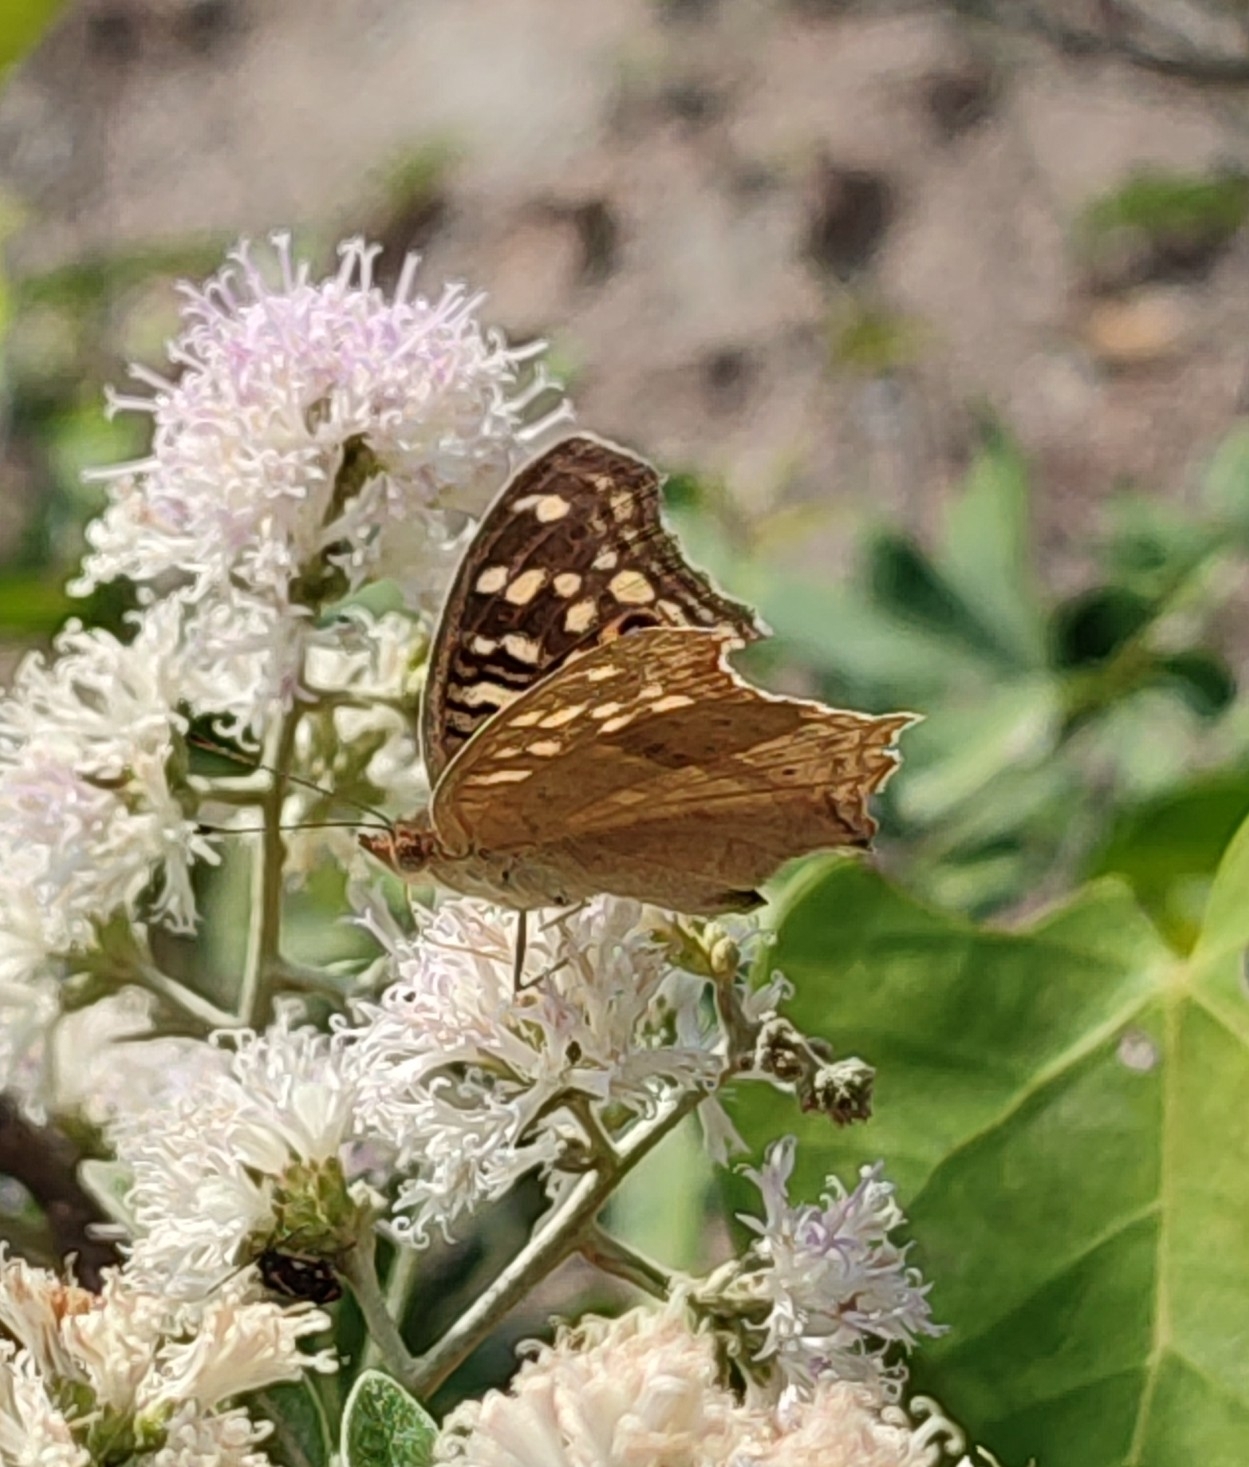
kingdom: Animalia
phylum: Arthropoda
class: Insecta
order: Lepidoptera
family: Nymphalidae
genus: Junonia
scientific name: Junonia lemonias
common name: Lemon pansy
